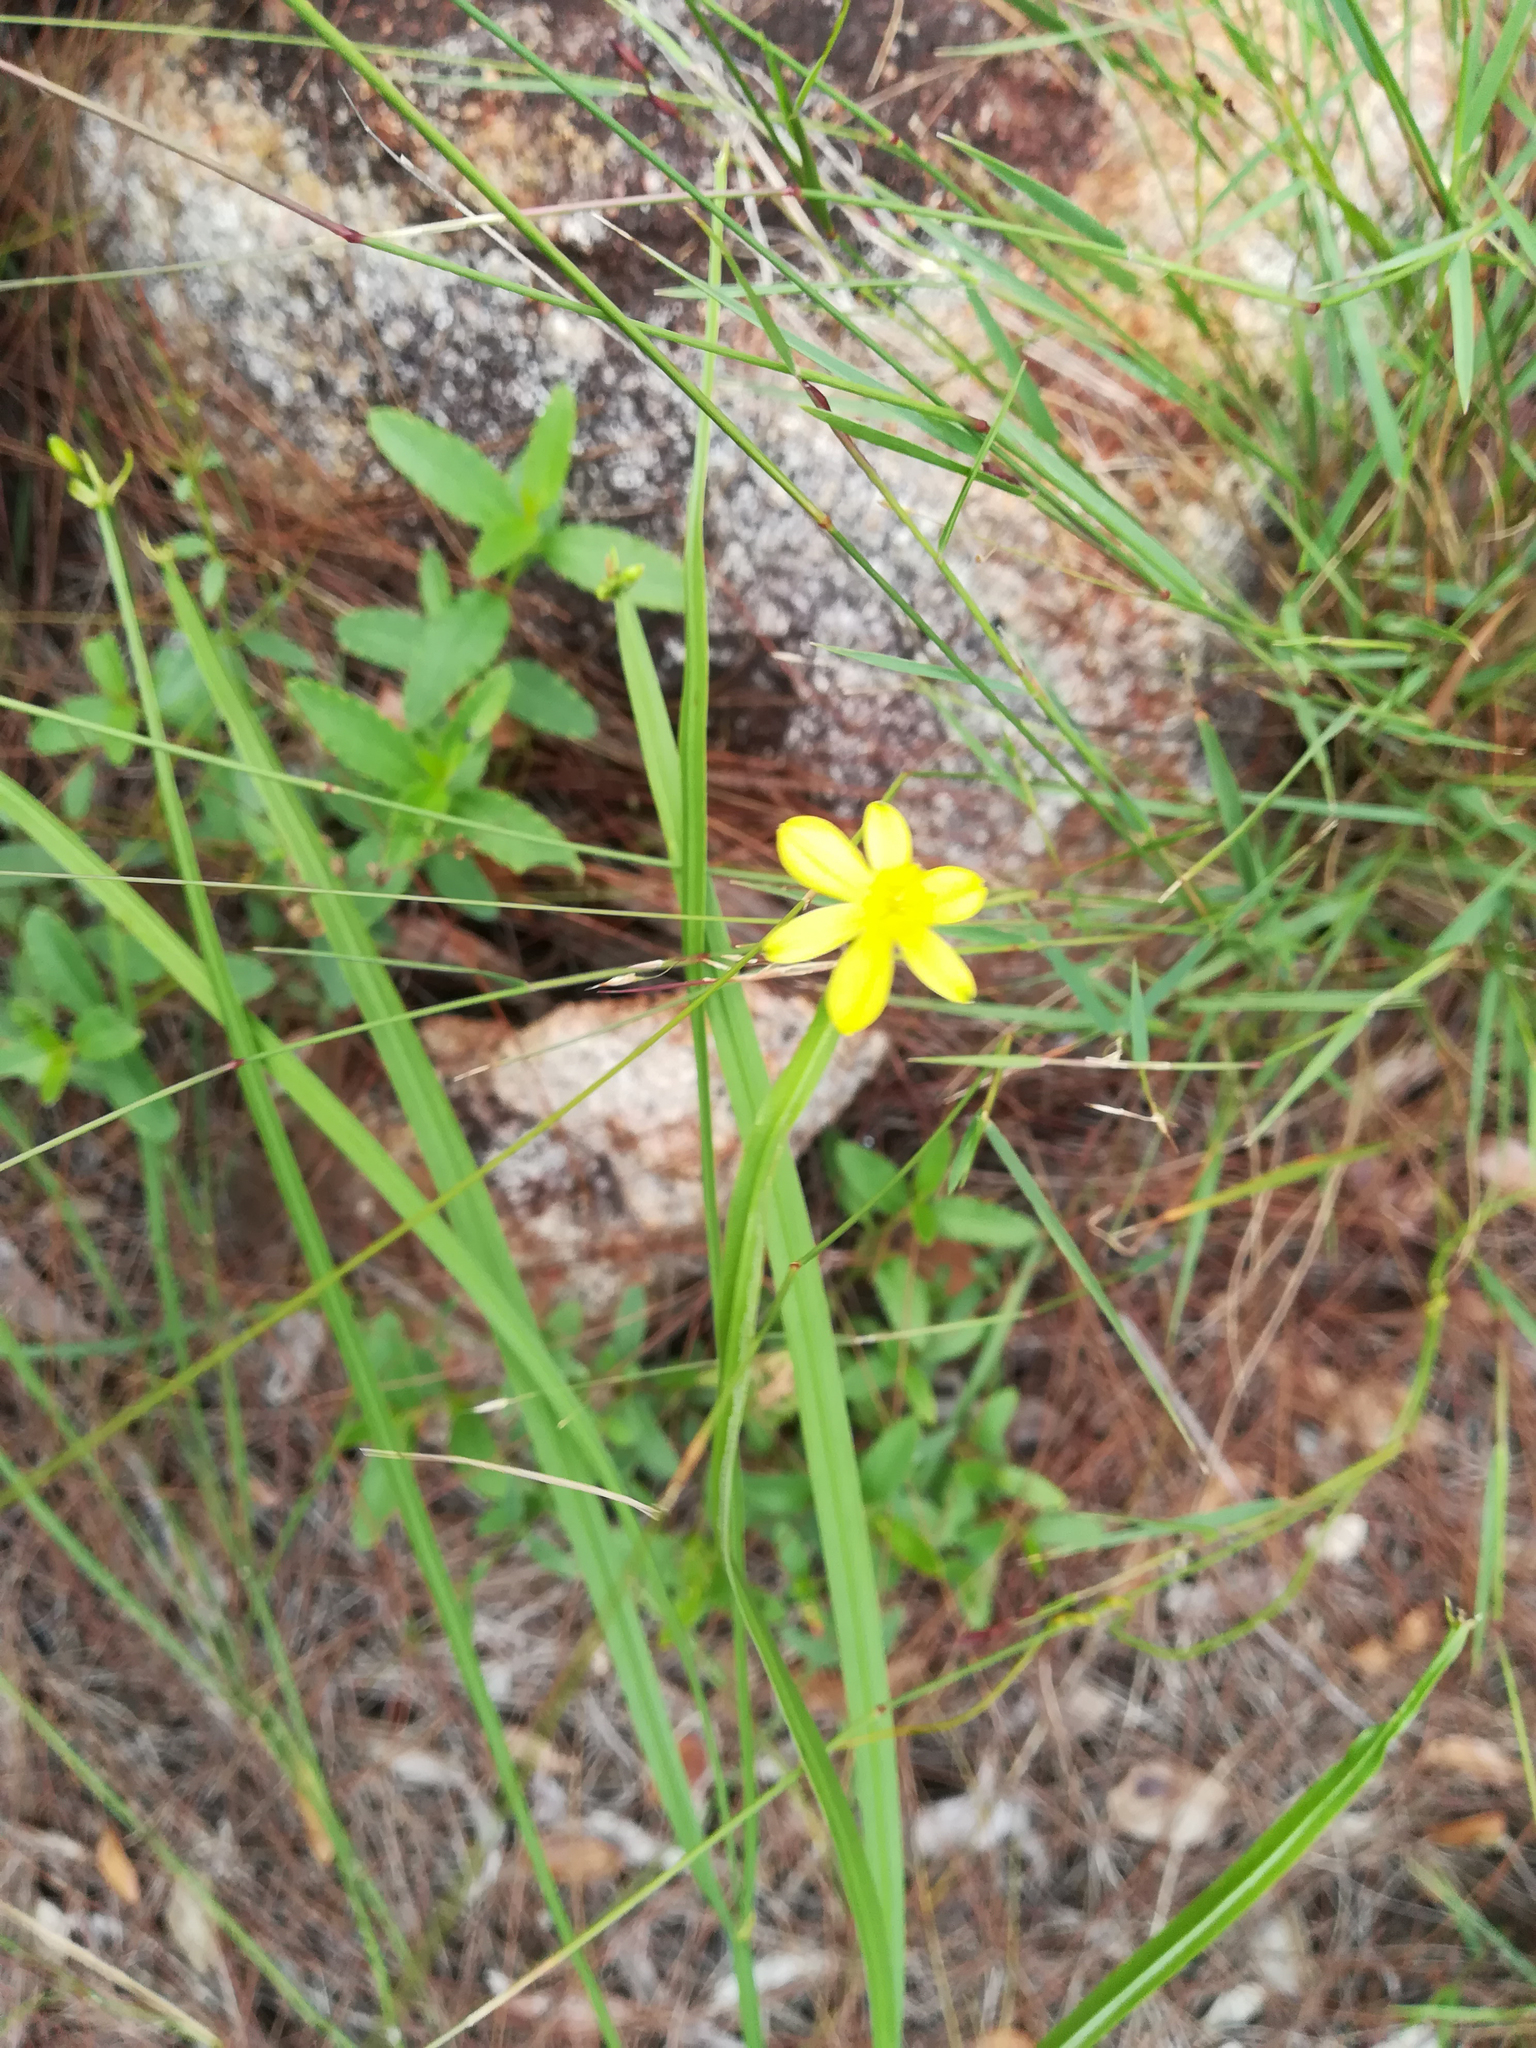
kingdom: Plantae
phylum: Tracheophyta
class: Liliopsida
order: Asparagales
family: Asphodelaceae
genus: Tricoryne
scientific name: Tricoryne anceps
